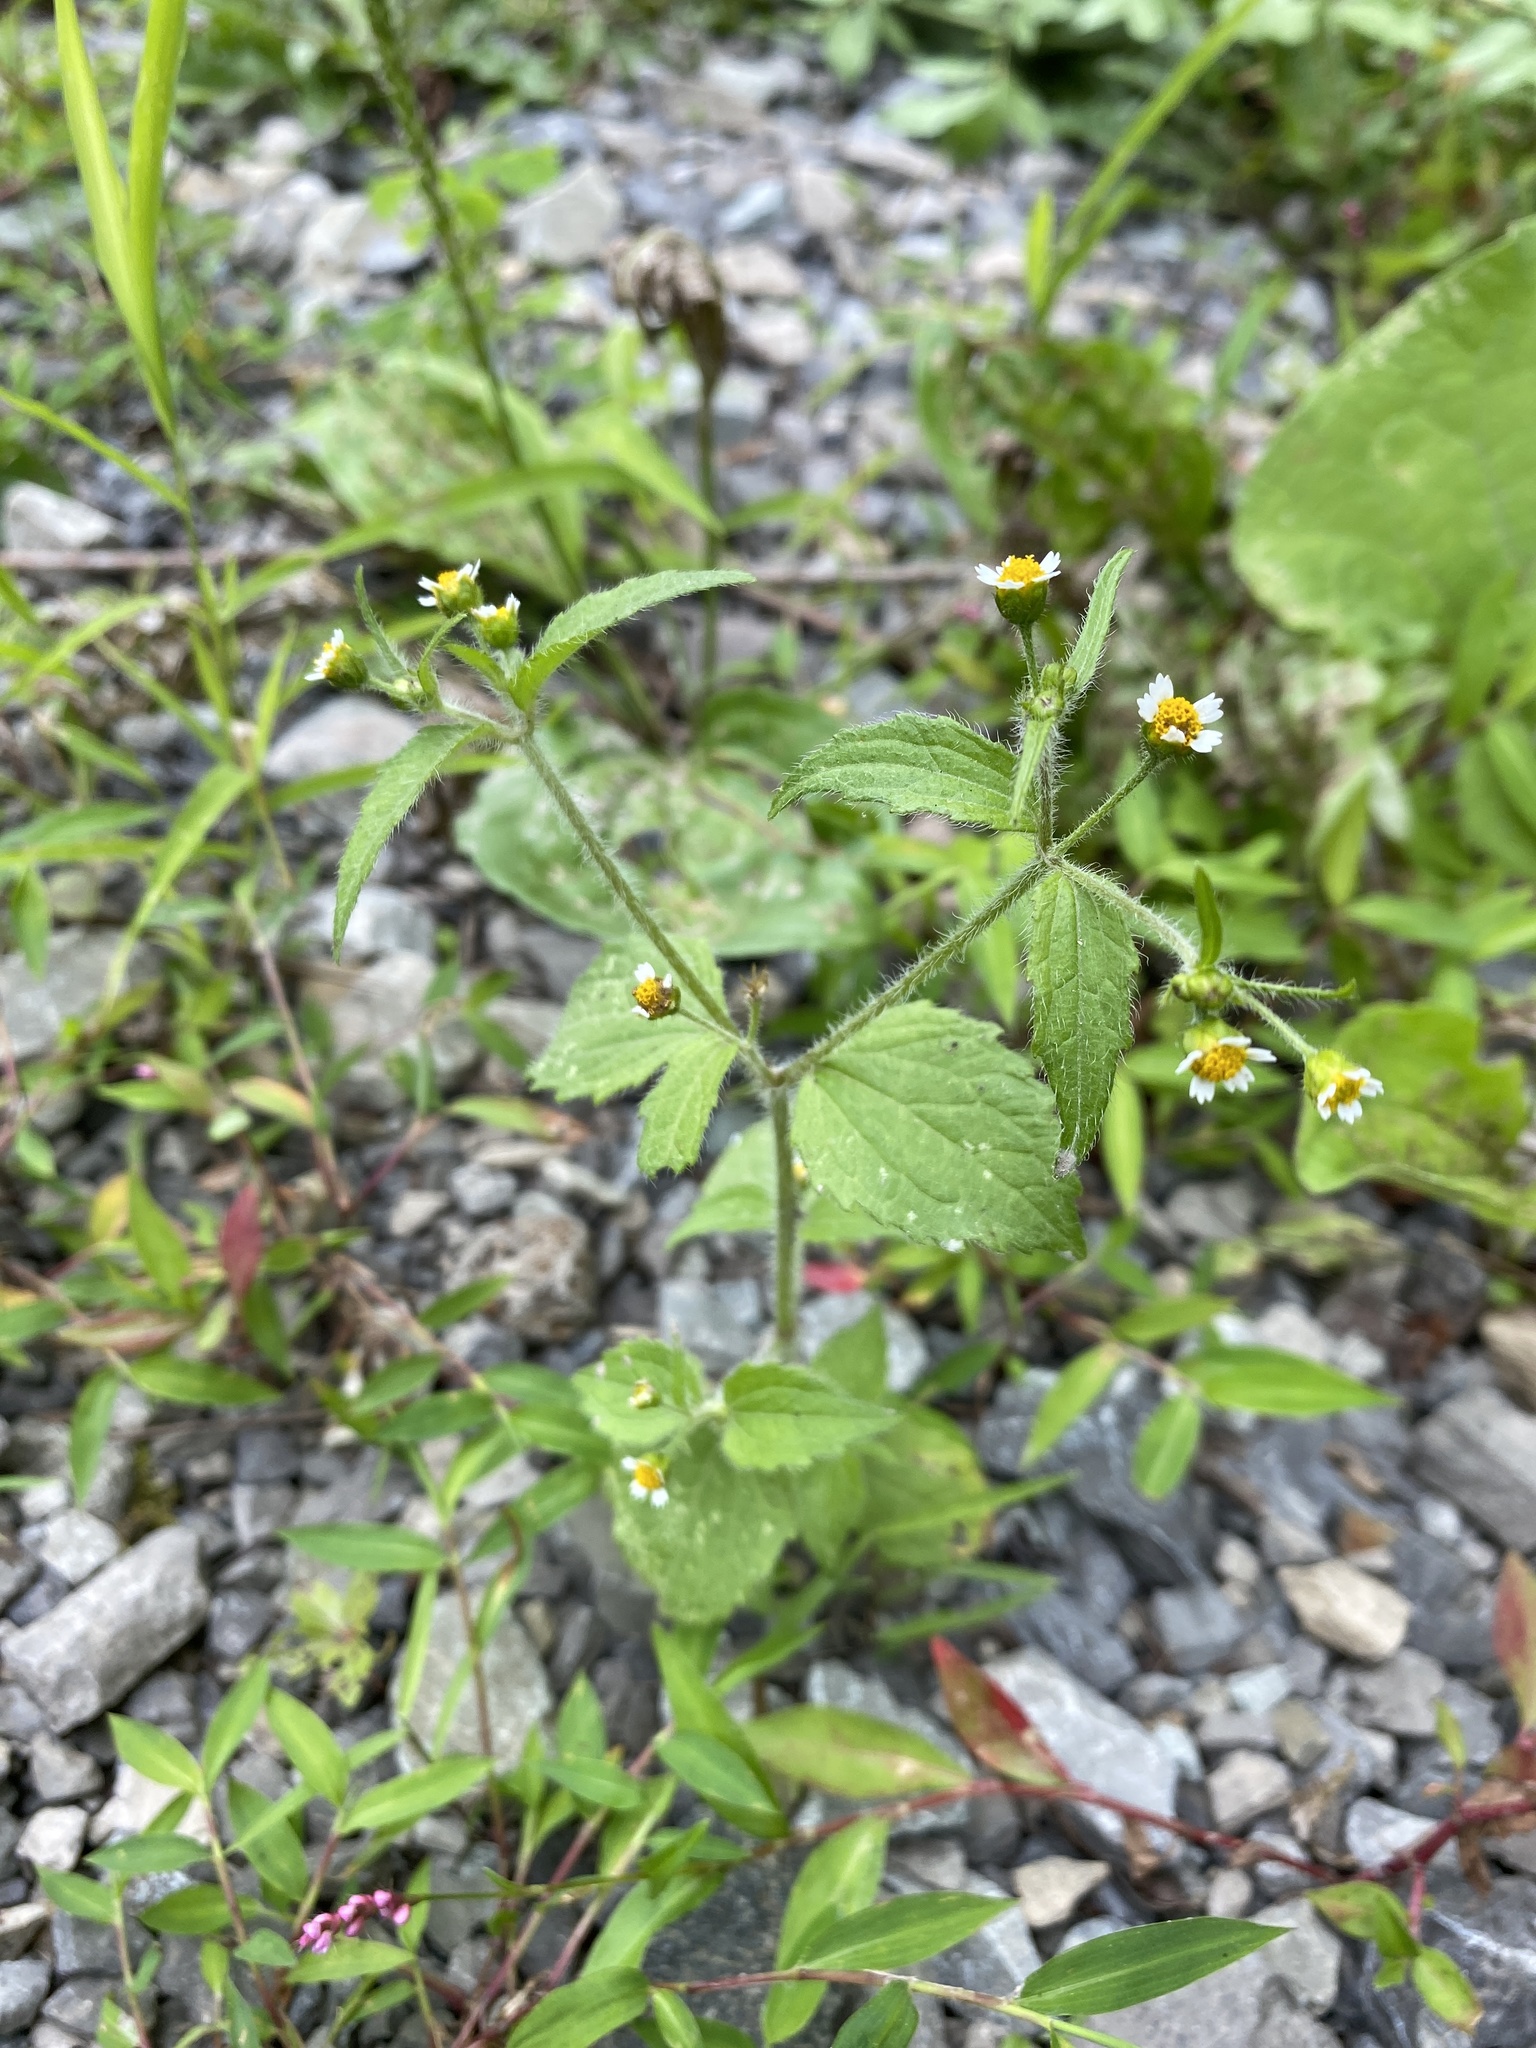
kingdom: Plantae
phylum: Tracheophyta
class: Magnoliopsida
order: Asterales
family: Asteraceae
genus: Galinsoga
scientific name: Galinsoga quadriradiata
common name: Shaggy soldier
